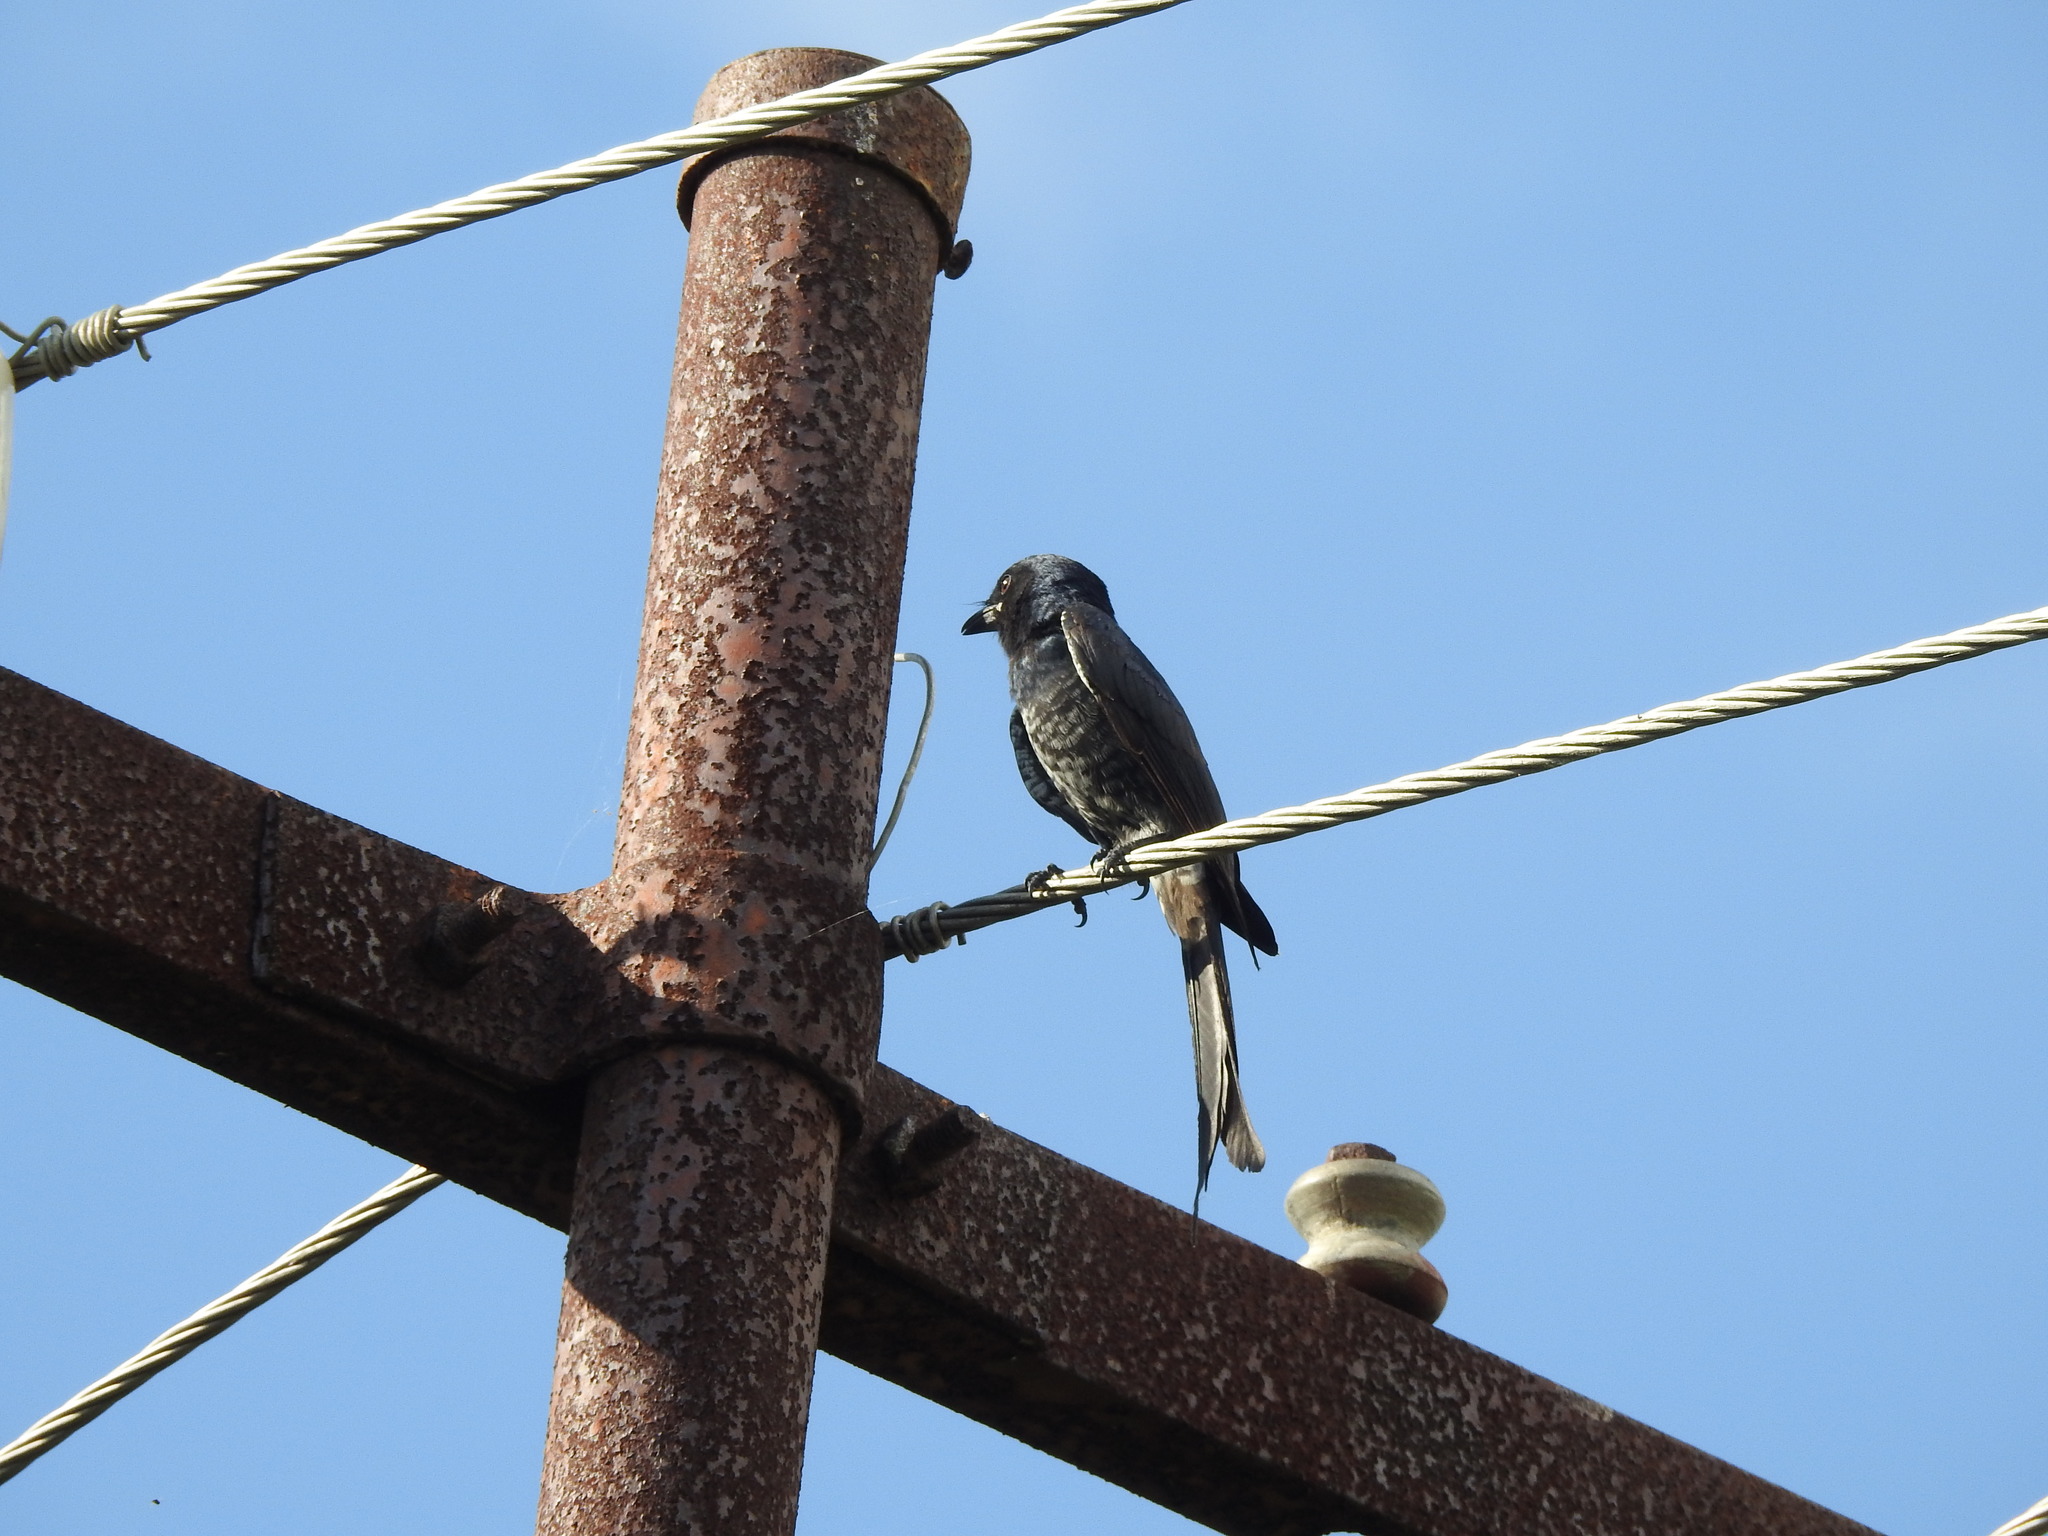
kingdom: Animalia
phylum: Chordata
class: Aves
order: Passeriformes
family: Dicruridae
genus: Dicrurus
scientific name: Dicrurus macrocercus
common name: Black drongo
